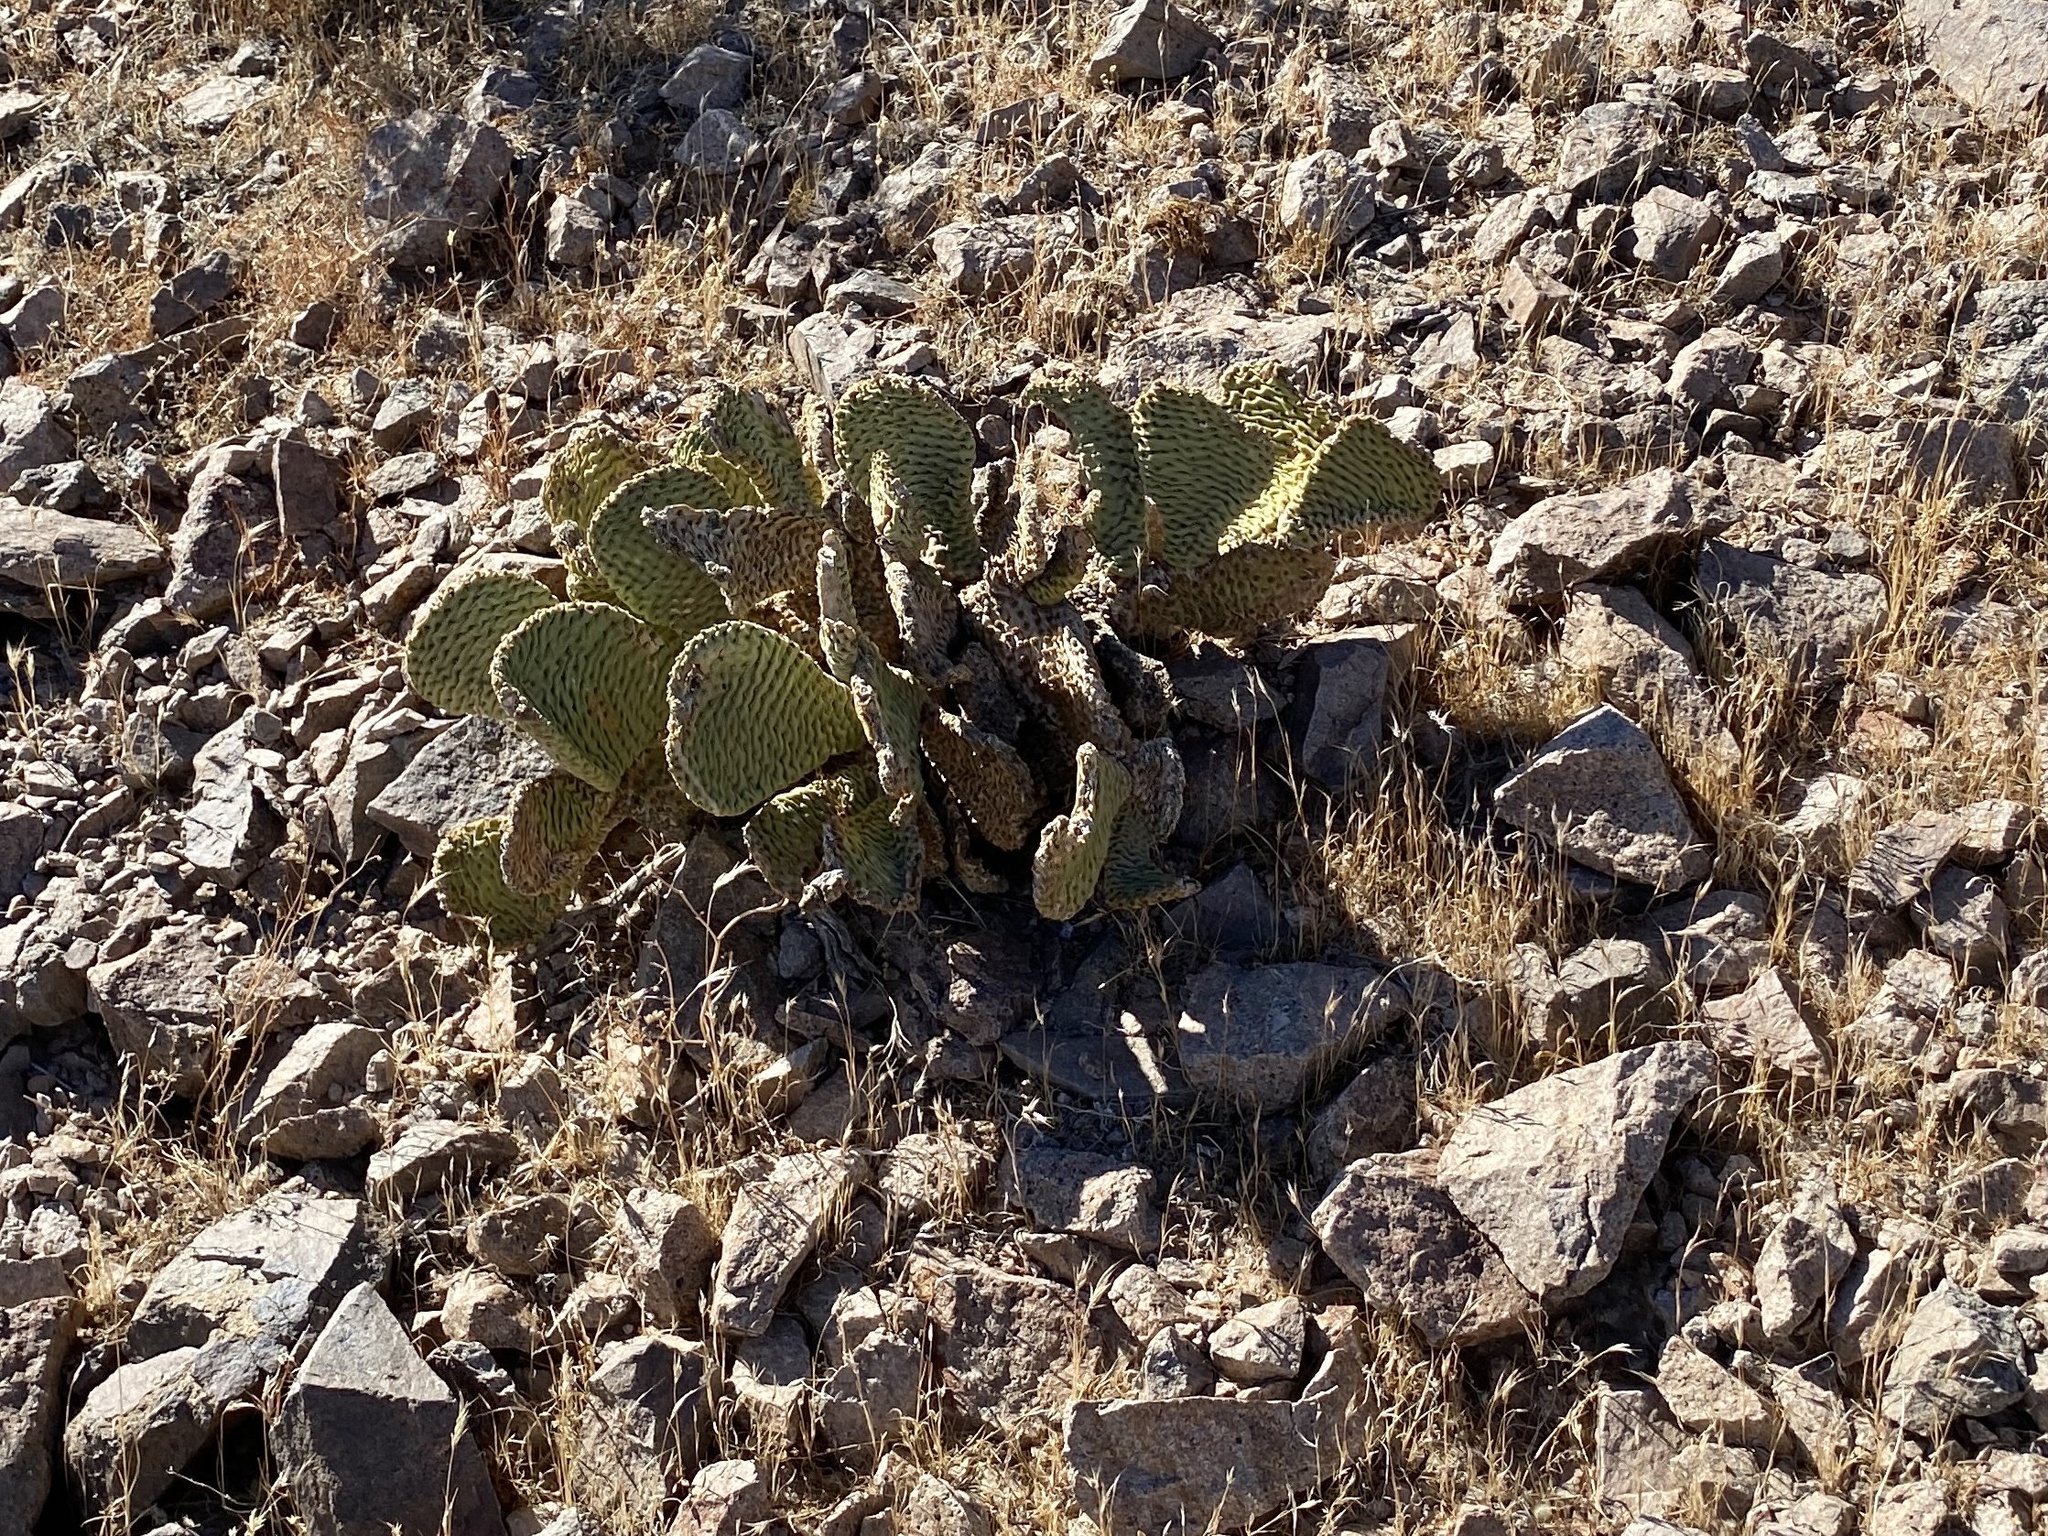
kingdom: Plantae
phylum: Tracheophyta
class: Magnoliopsida
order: Caryophyllales
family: Cactaceae
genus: Opuntia
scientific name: Opuntia basilaris
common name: Beavertail prickly-pear
